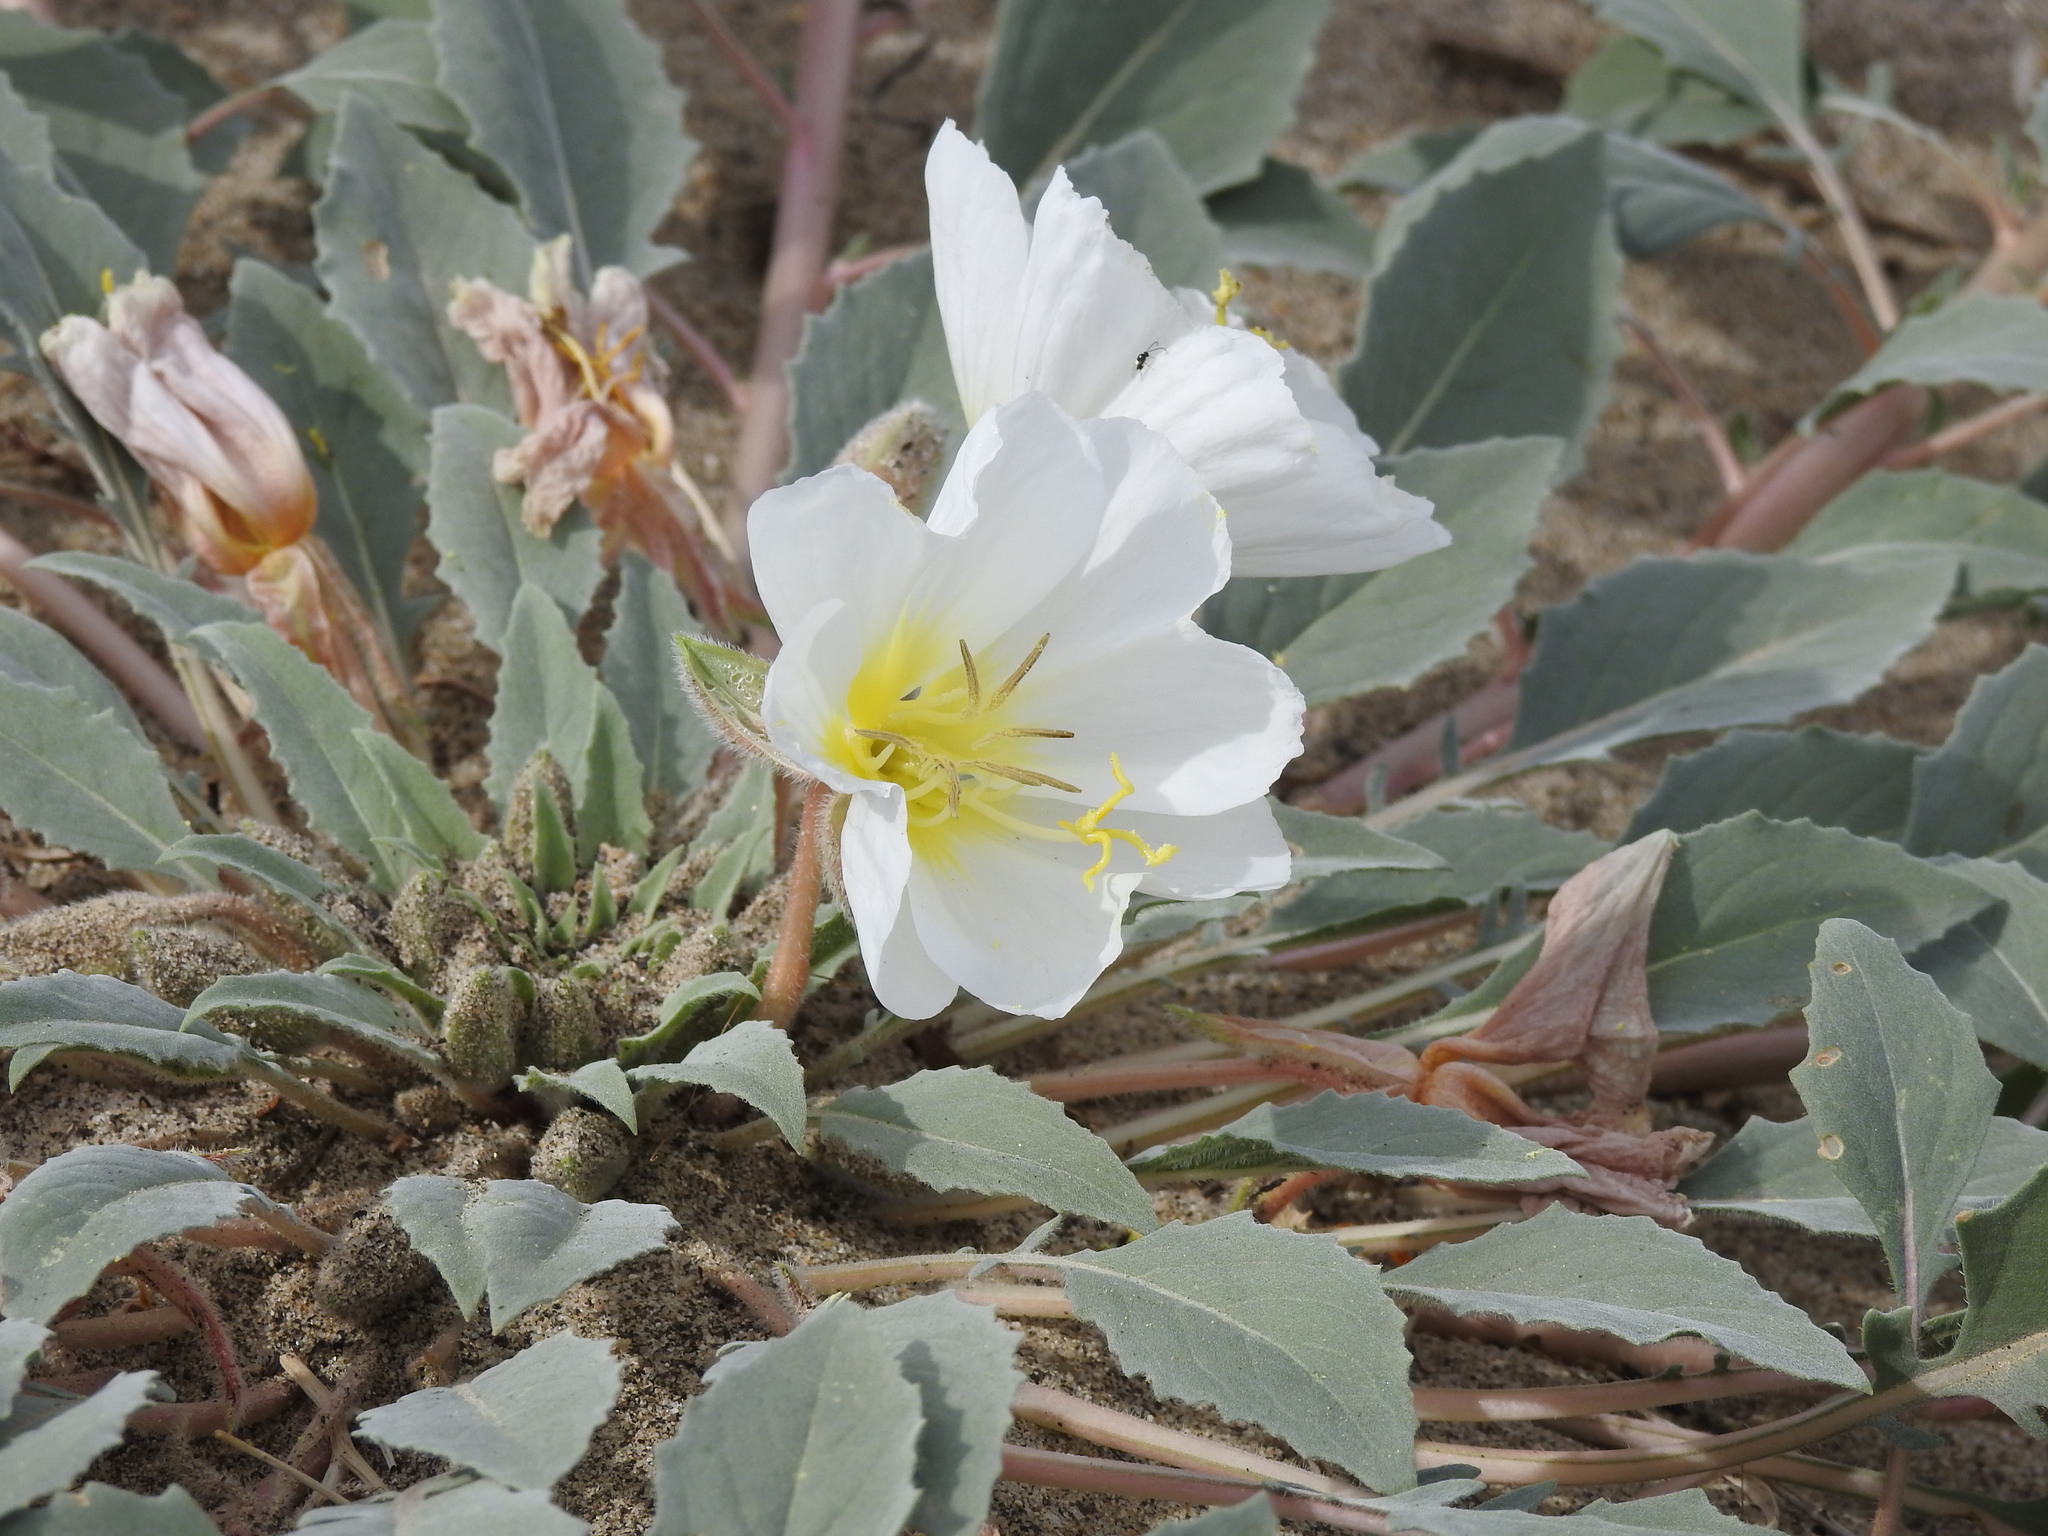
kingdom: Plantae
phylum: Tracheophyta
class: Magnoliopsida
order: Myrtales
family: Onagraceae
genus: Oenothera
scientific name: Oenothera deltoides
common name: Basket evening-primrose
